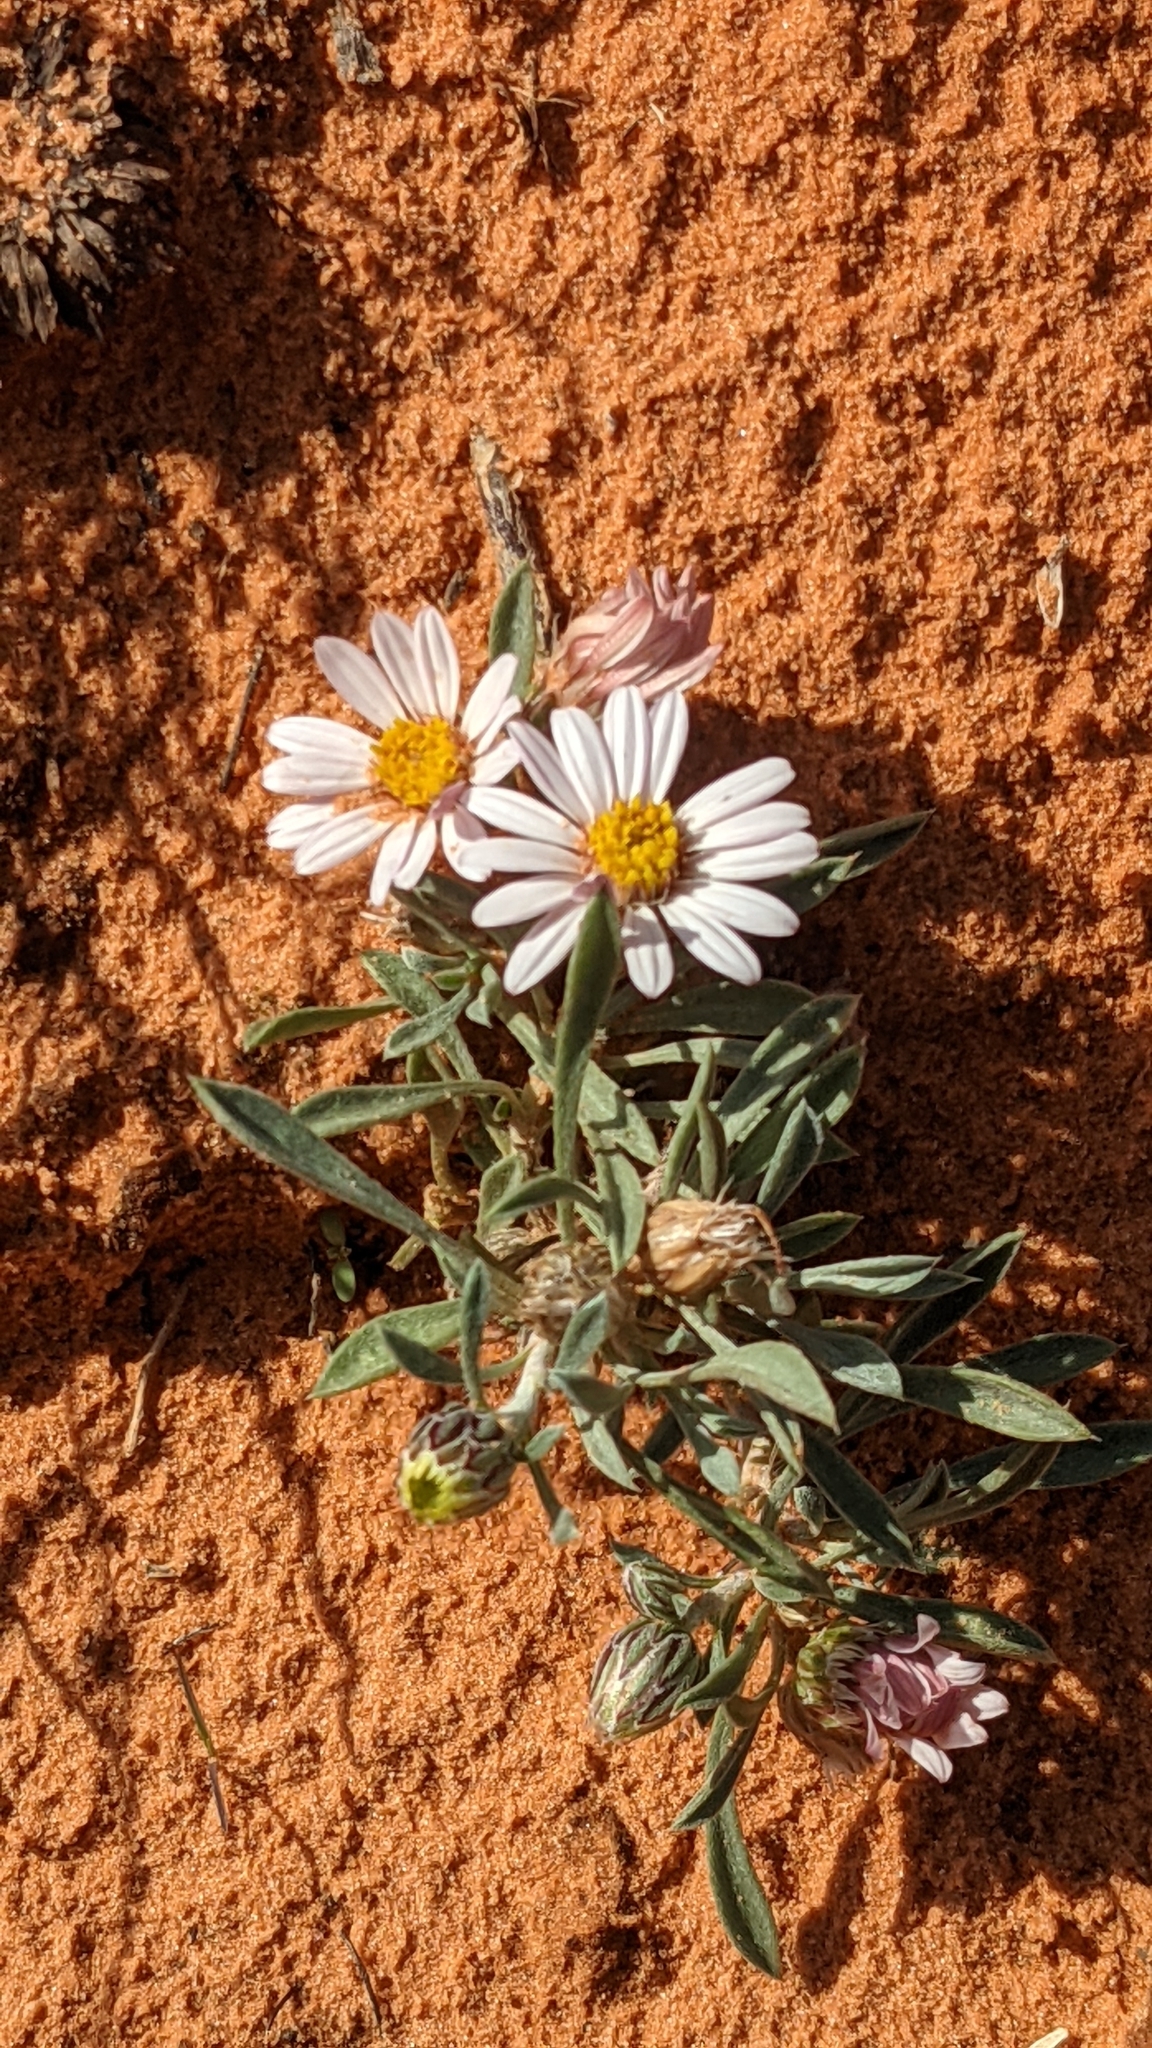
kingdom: Plantae
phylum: Tracheophyta
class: Magnoliopsida
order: Asterales
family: Asteraceae
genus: Townsendia
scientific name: Townsendia incana
